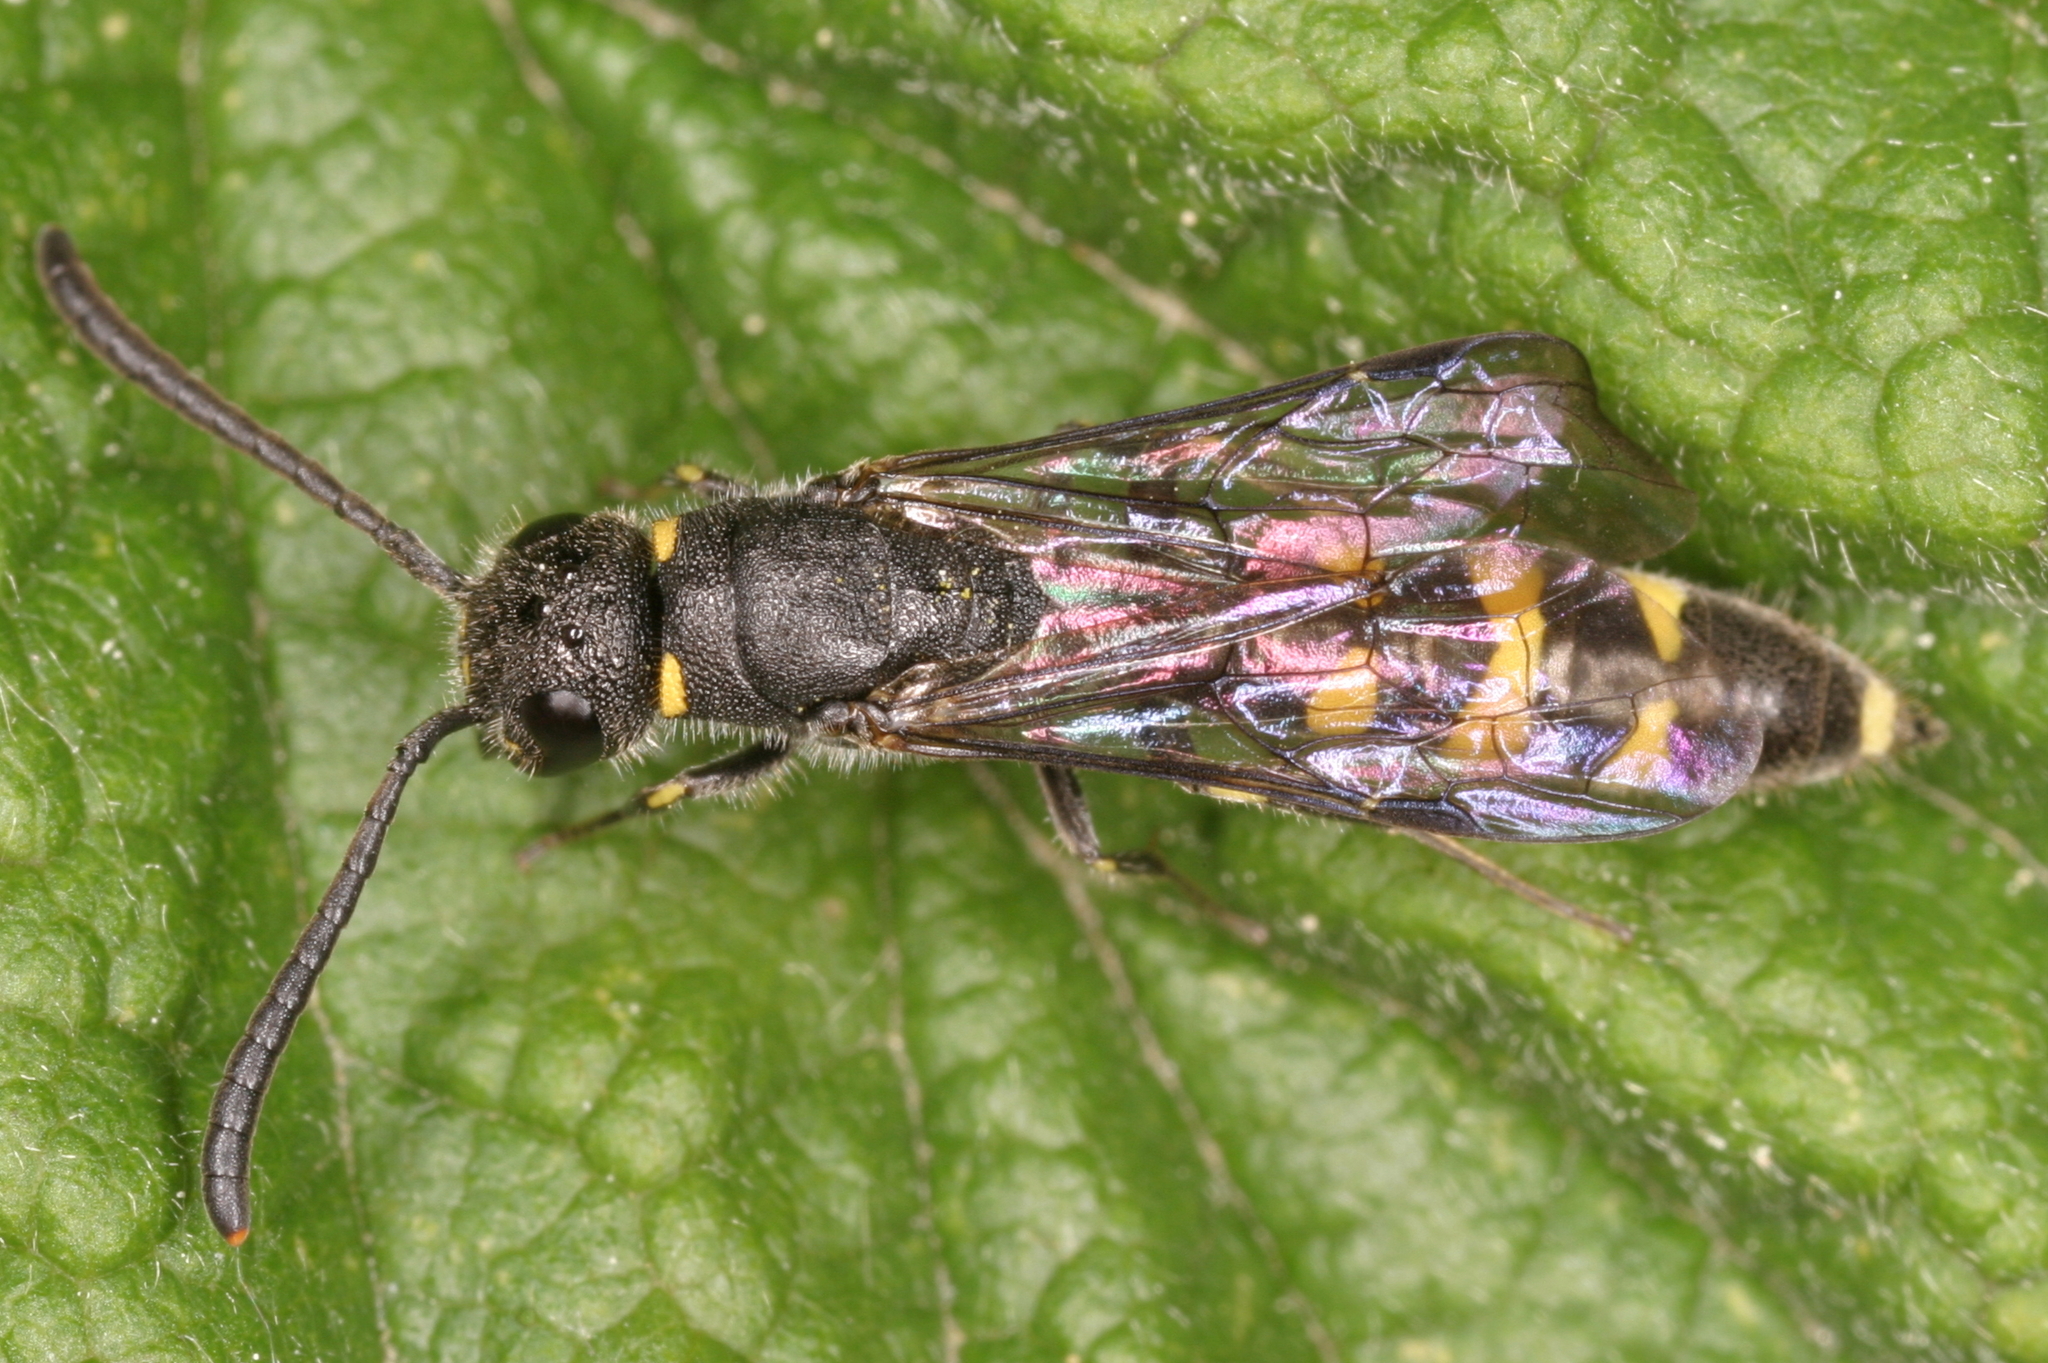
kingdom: Animalia
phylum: Arthropoda
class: Insecta
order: Hymenoptera
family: Sapygidae
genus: Monosapyga
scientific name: Monosapyga clavicornis
